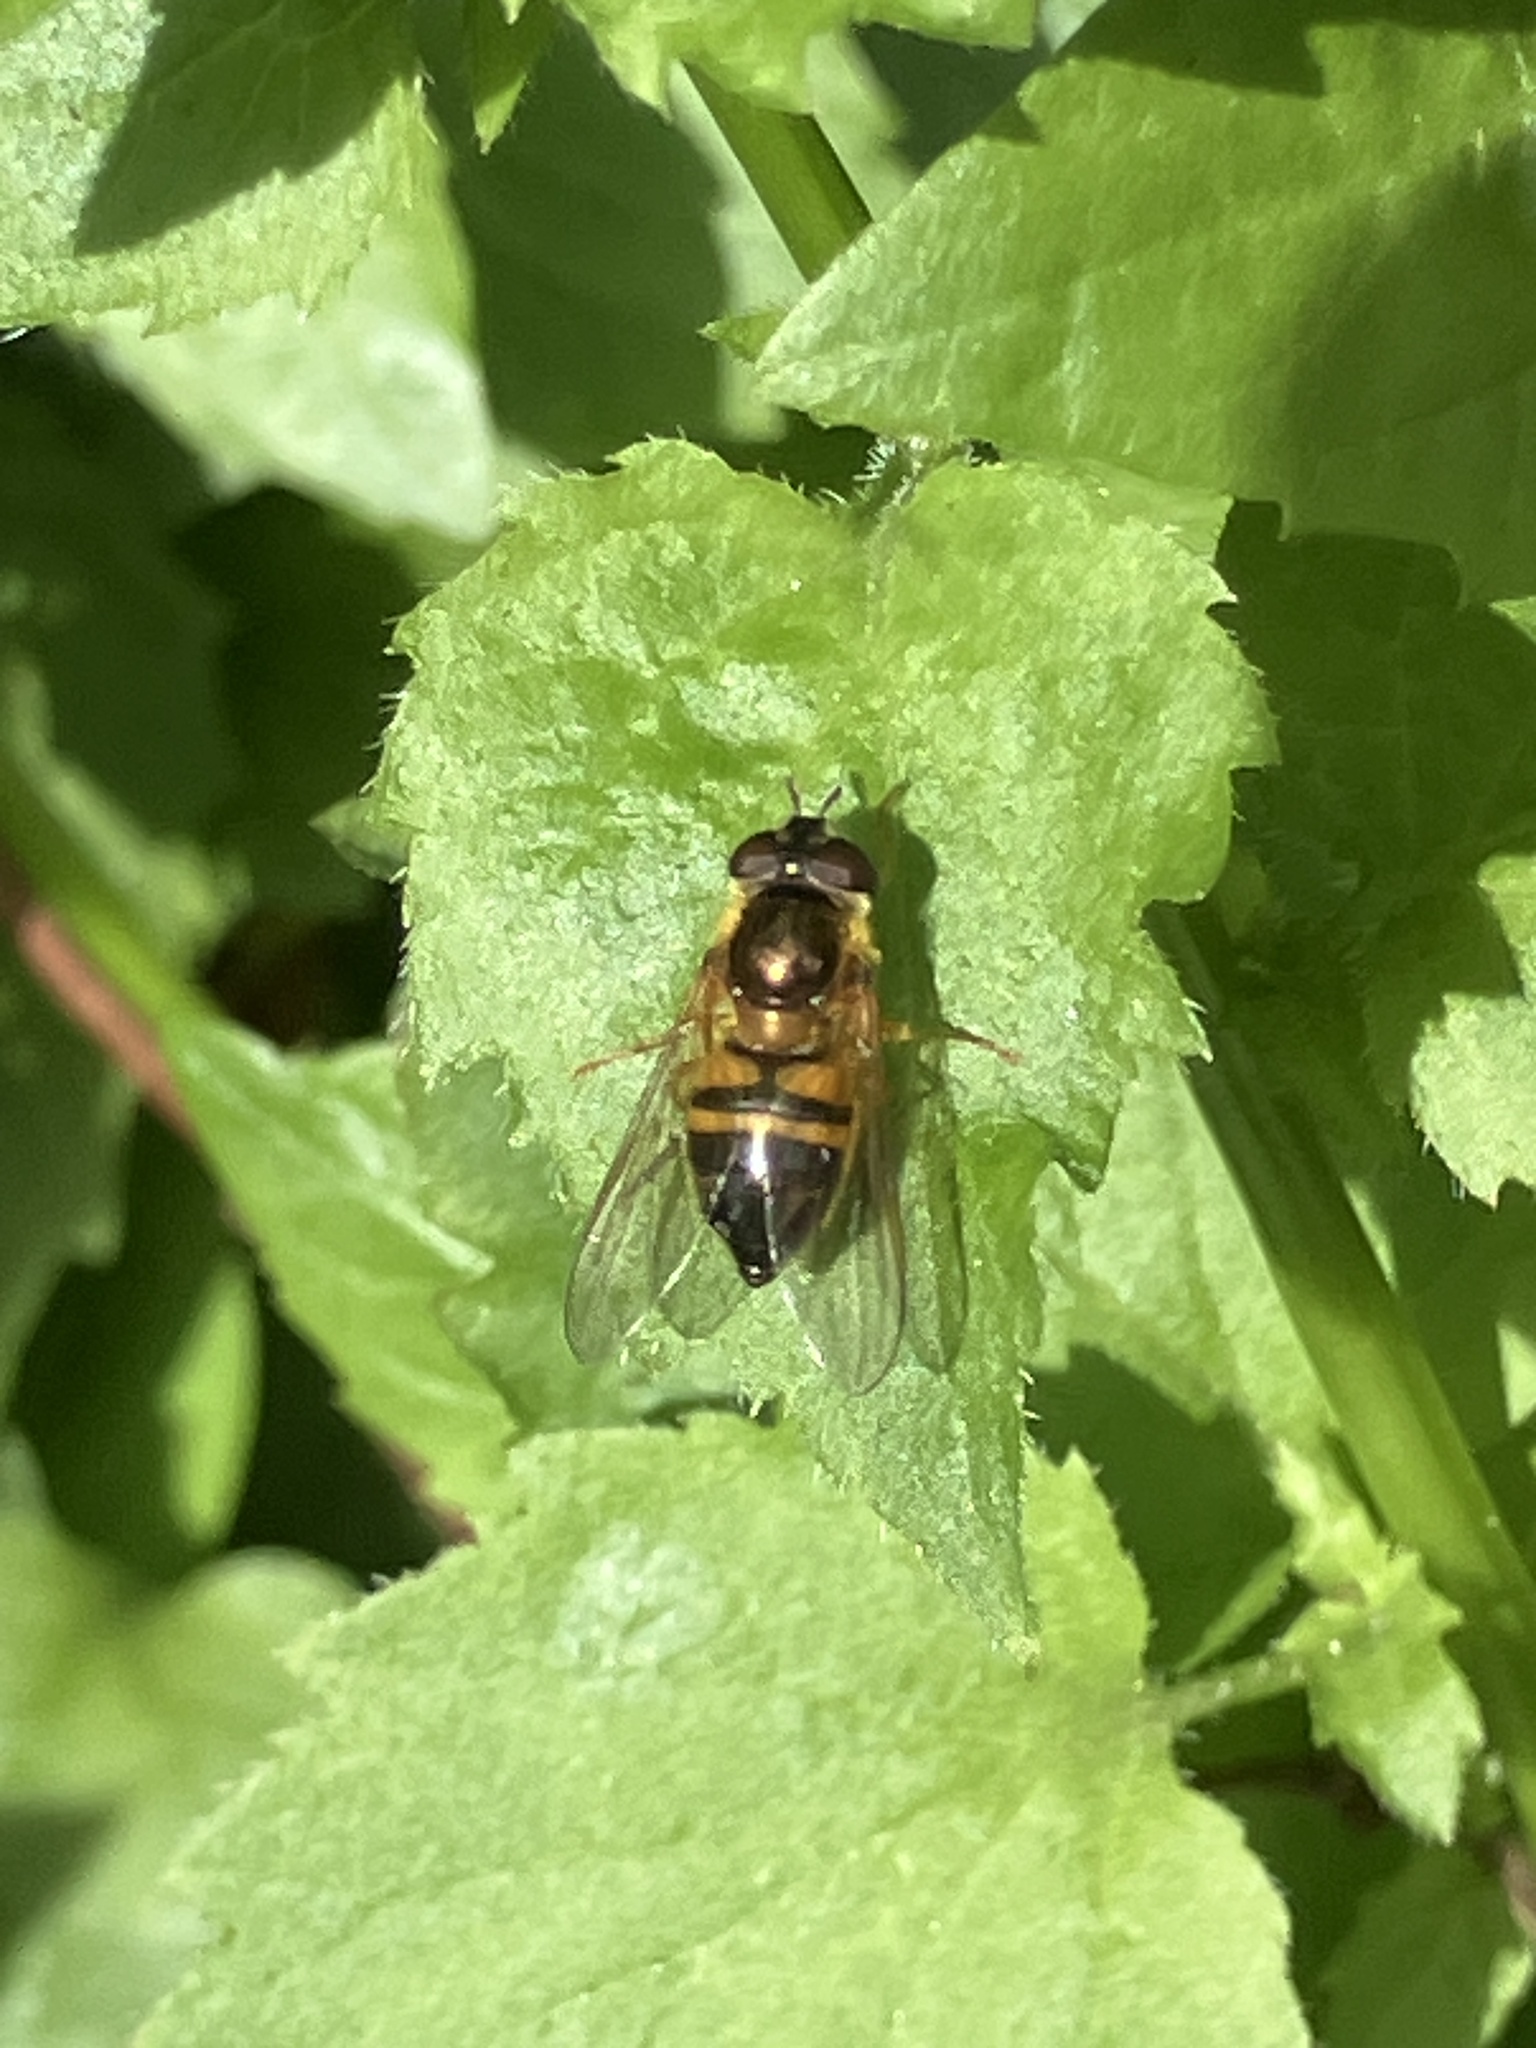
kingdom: Animalia
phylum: Arthropoda
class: Insecta
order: Diptera
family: Syrphidae
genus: Epistrophe
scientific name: Epistrophe eligans
